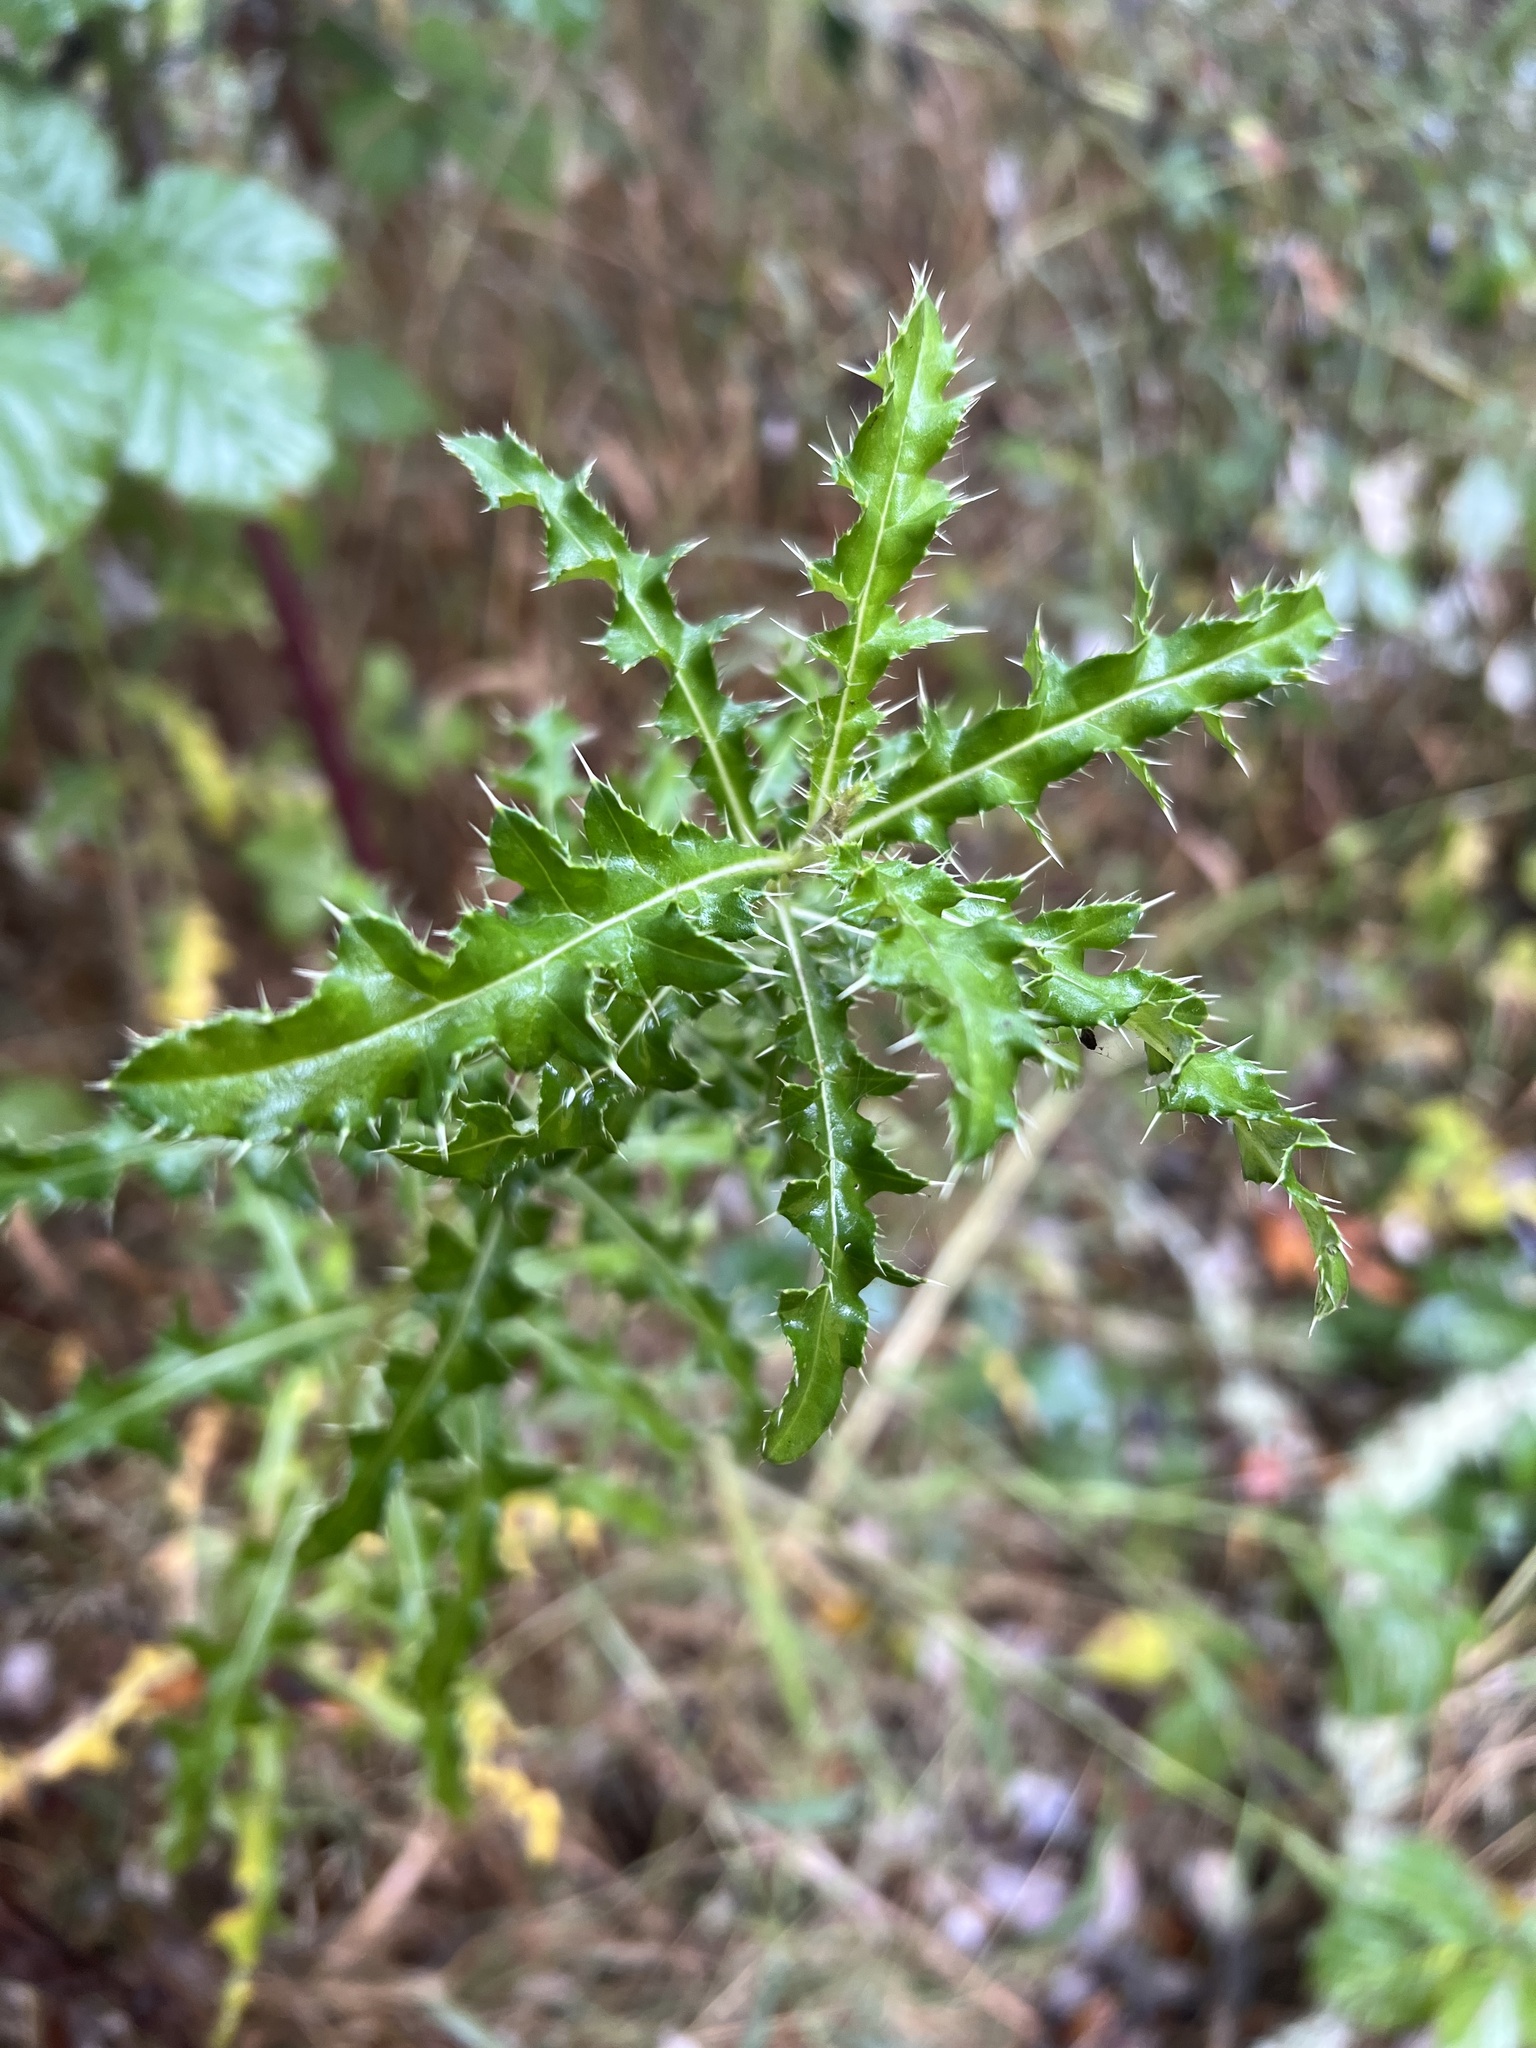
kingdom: Plantae
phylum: Tracheophyta
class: Magnoliopsida
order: Asterales
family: Asteraceae
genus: Cirsium
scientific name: Cirsium arvense
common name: Creeping thistle
